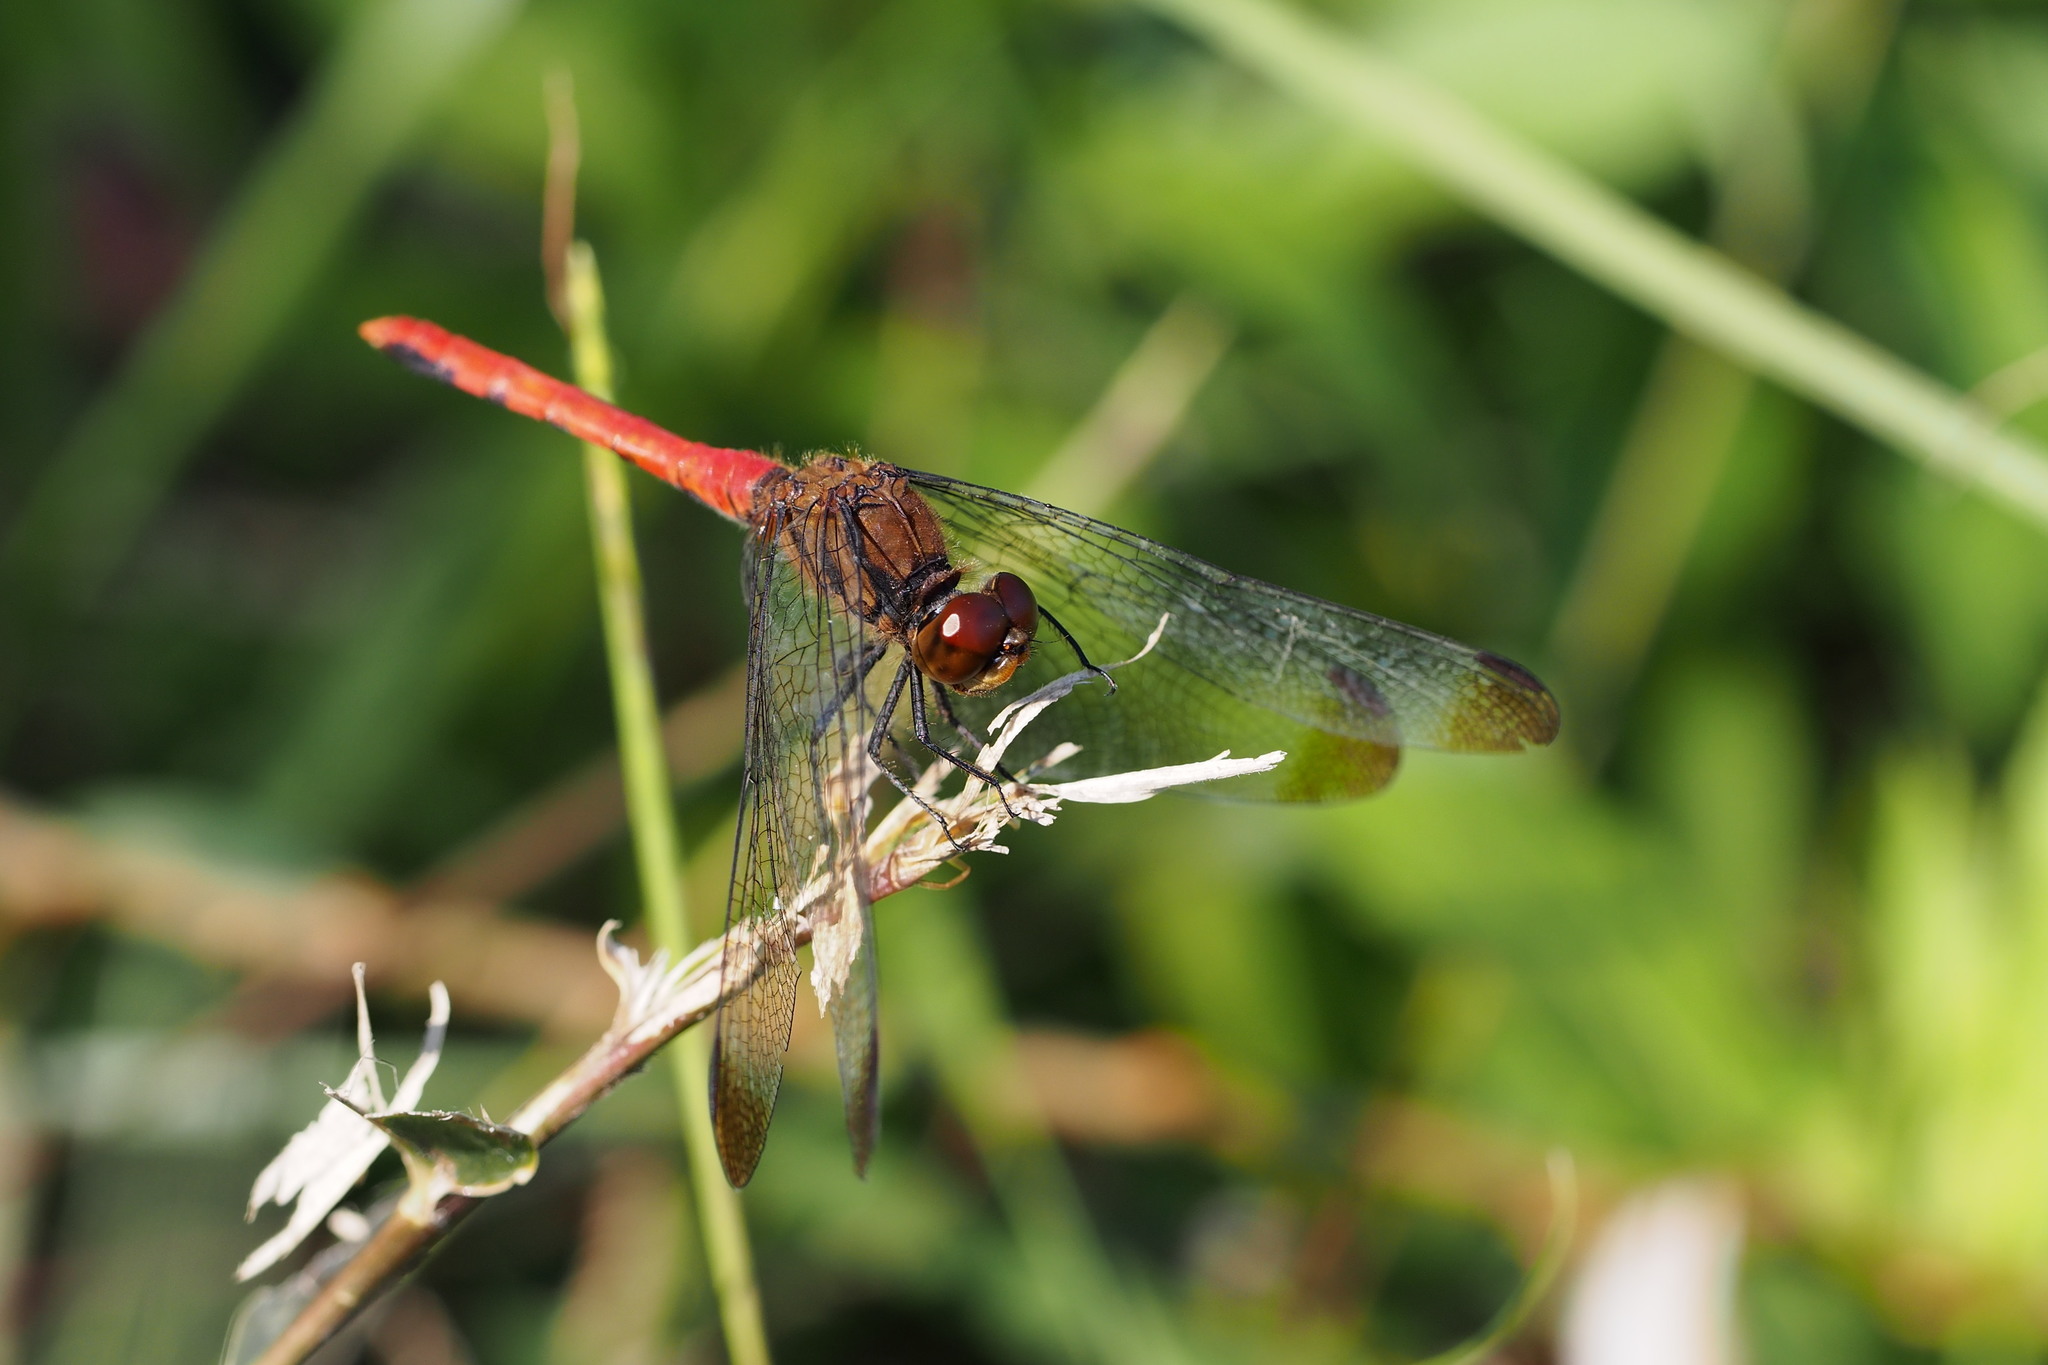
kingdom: Animalia
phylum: Arthropoda
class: Insecta
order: Odonata
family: Libellulidae
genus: Sympetrum
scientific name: Sympetrum risi
